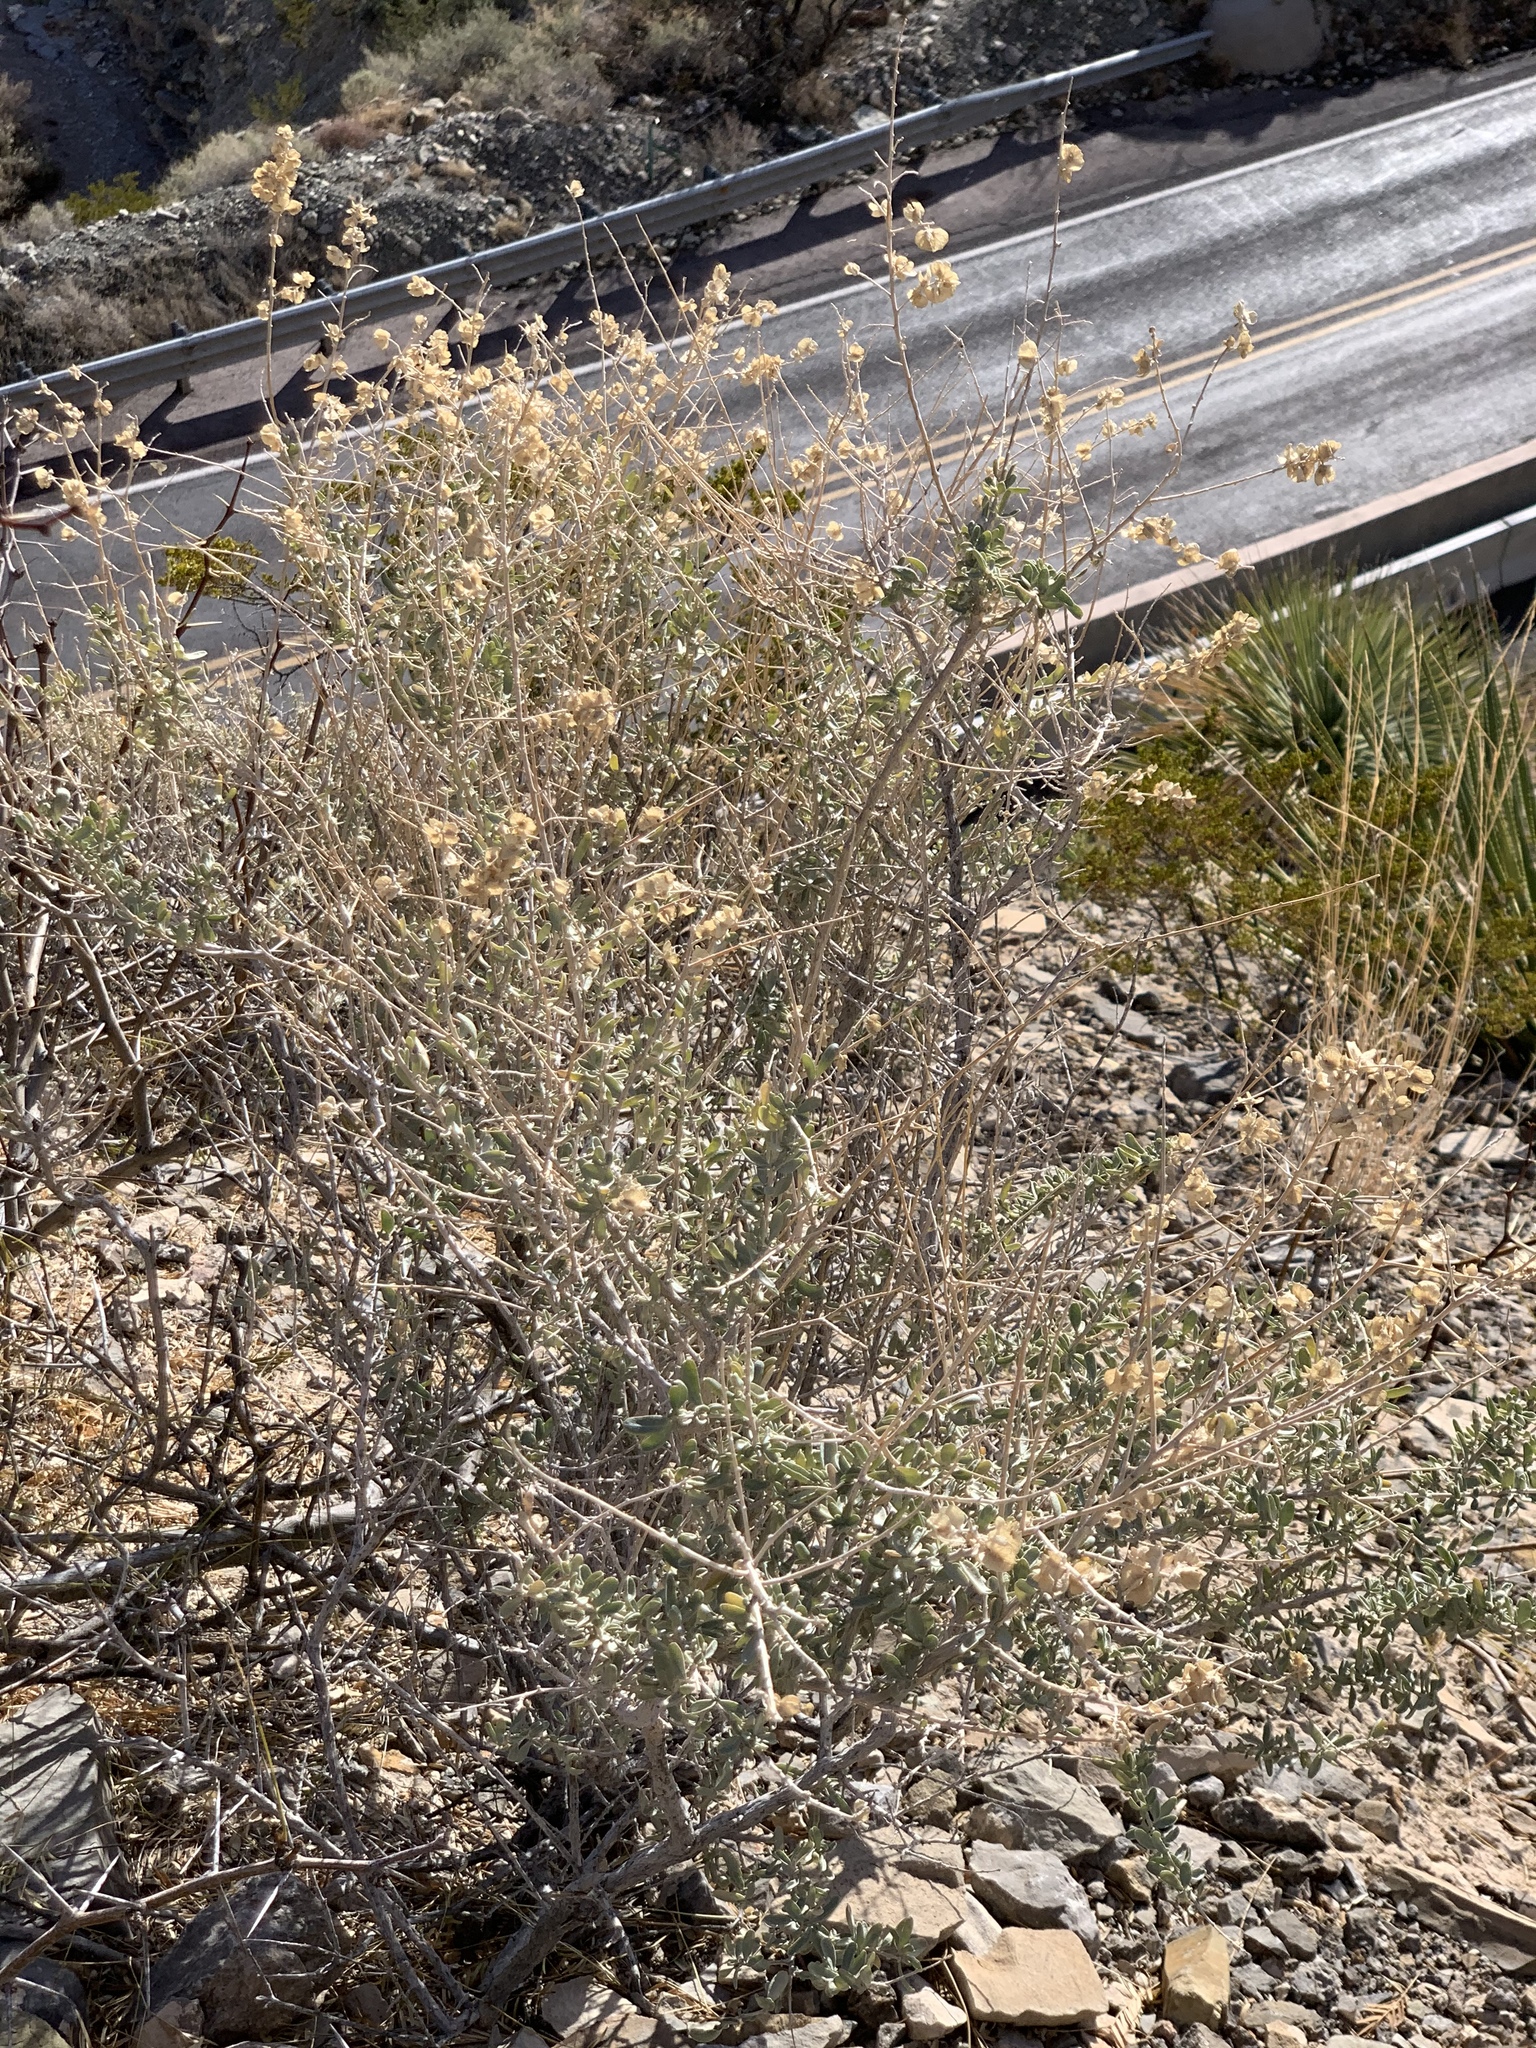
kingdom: Plantae
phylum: Tracheophyta
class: Magnoliopsida
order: Caryophyllales
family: Amaranthaceae
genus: Atriplex
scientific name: Atriplex canescens
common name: Four-wing saltbush
